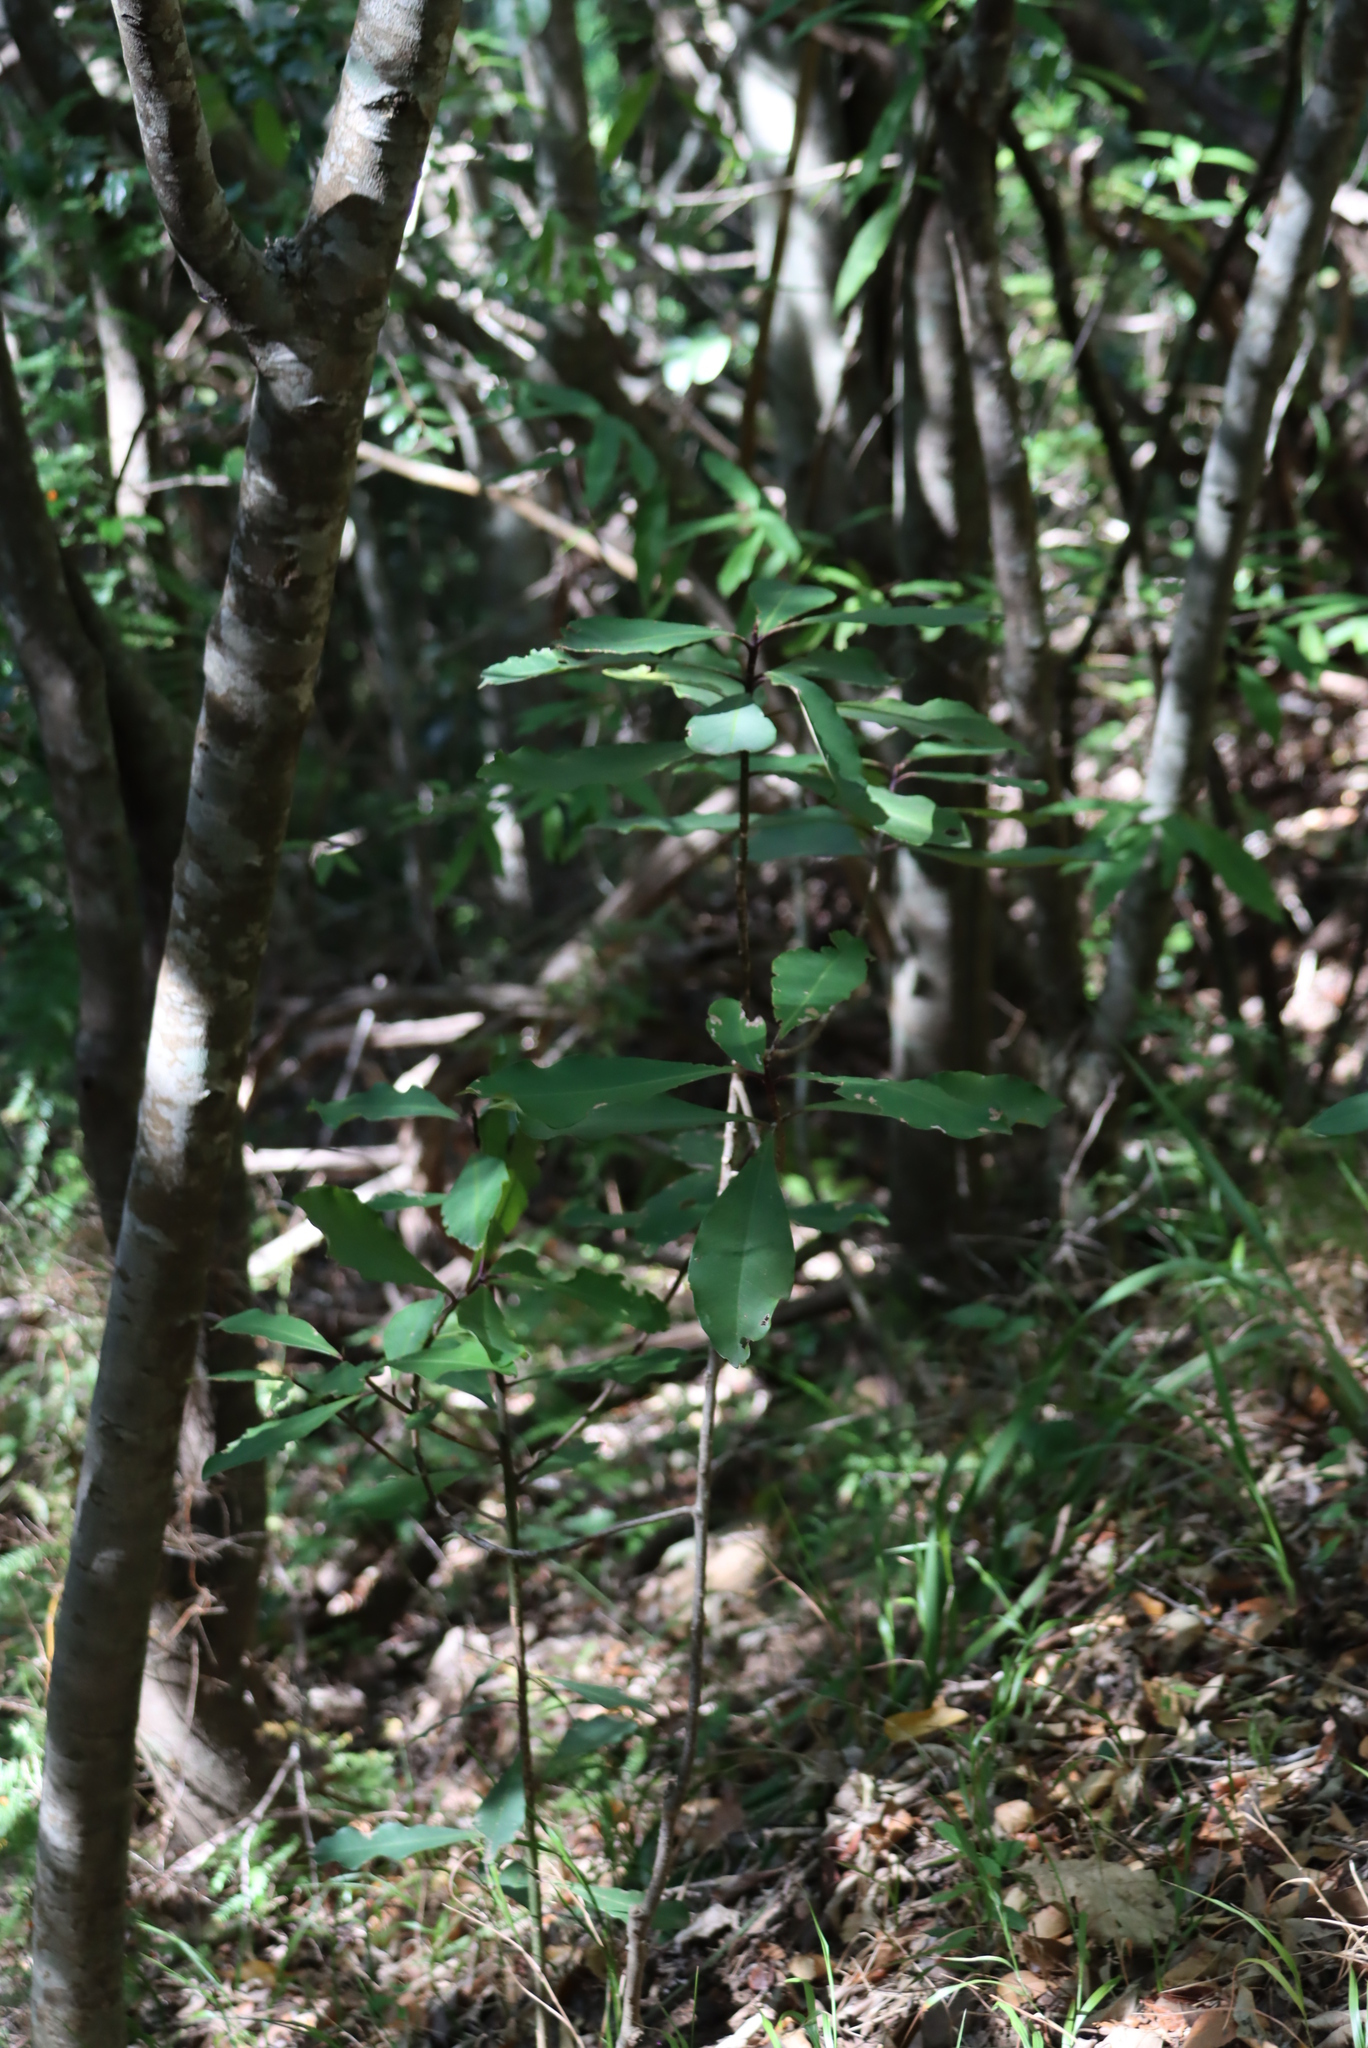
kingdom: Plantae
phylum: Tracheophyta
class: Magnoliopsida
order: Ericales
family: Primulaceae
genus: Myrsine
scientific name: Myrsine melanophloeos
